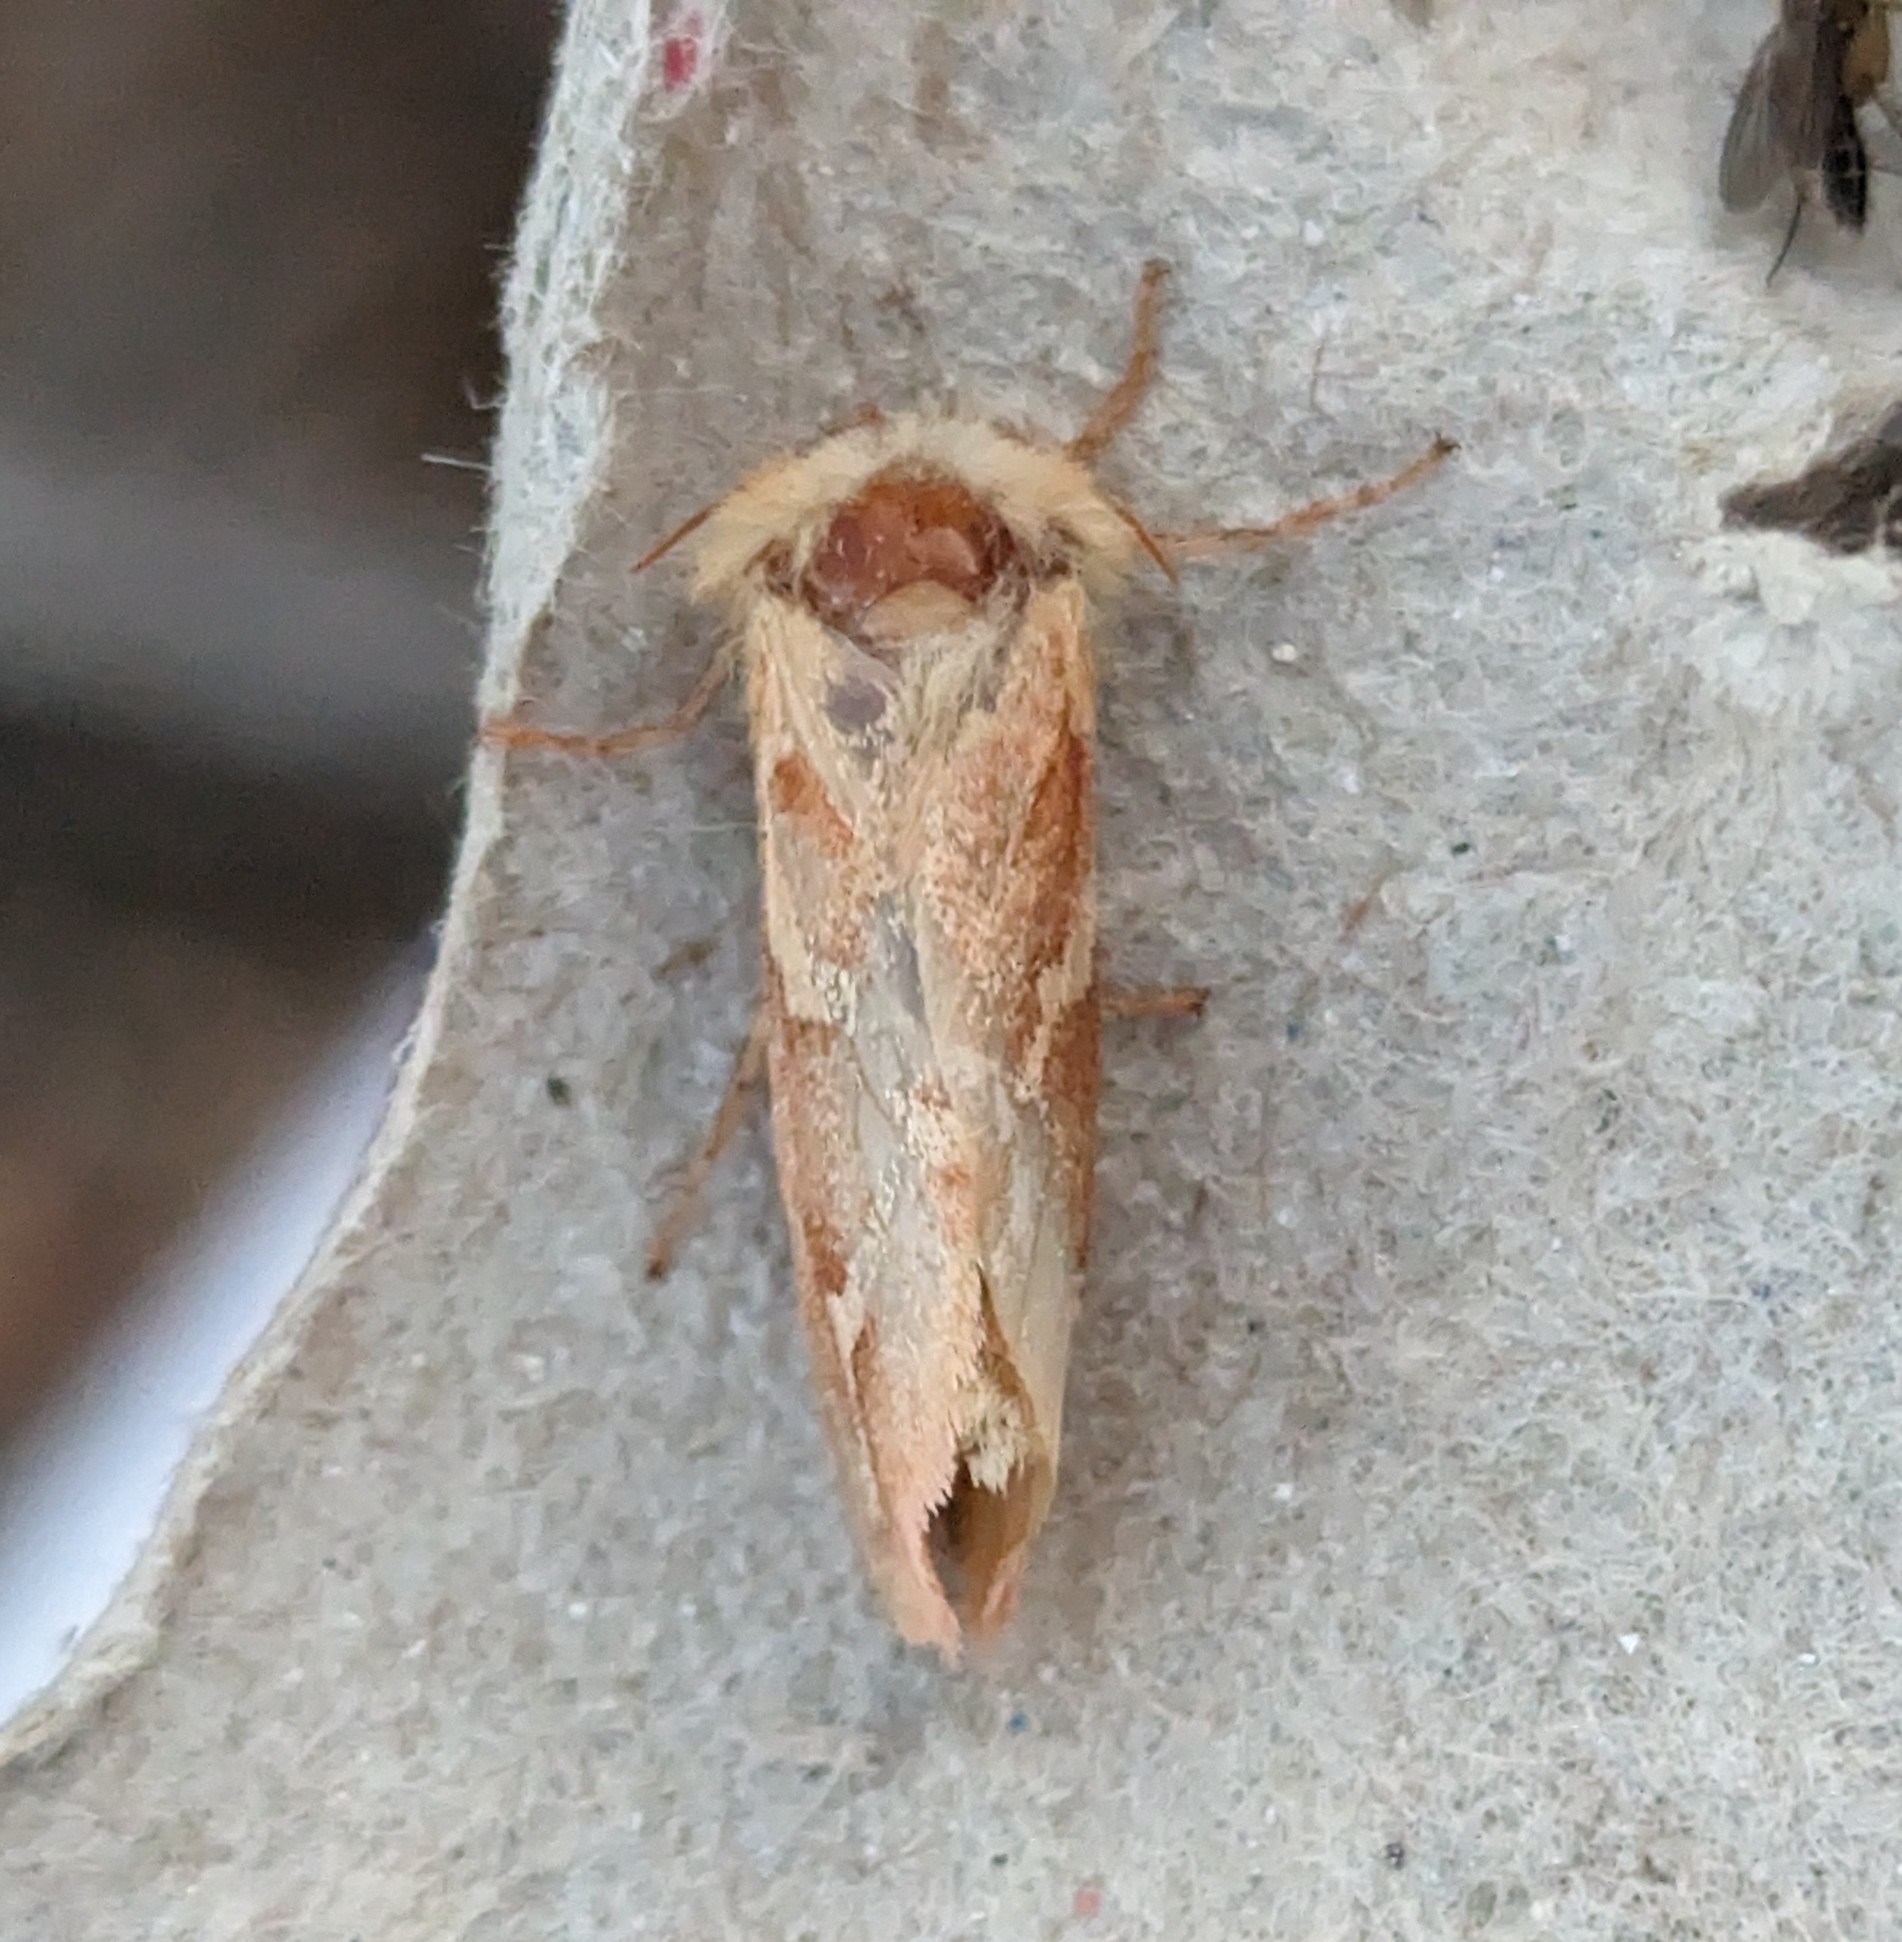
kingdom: Animalia
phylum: Arthropoda
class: Insecta
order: Lepidoptera
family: Hepialidae
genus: Gazoryctra
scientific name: Gazoryctra novigannus
